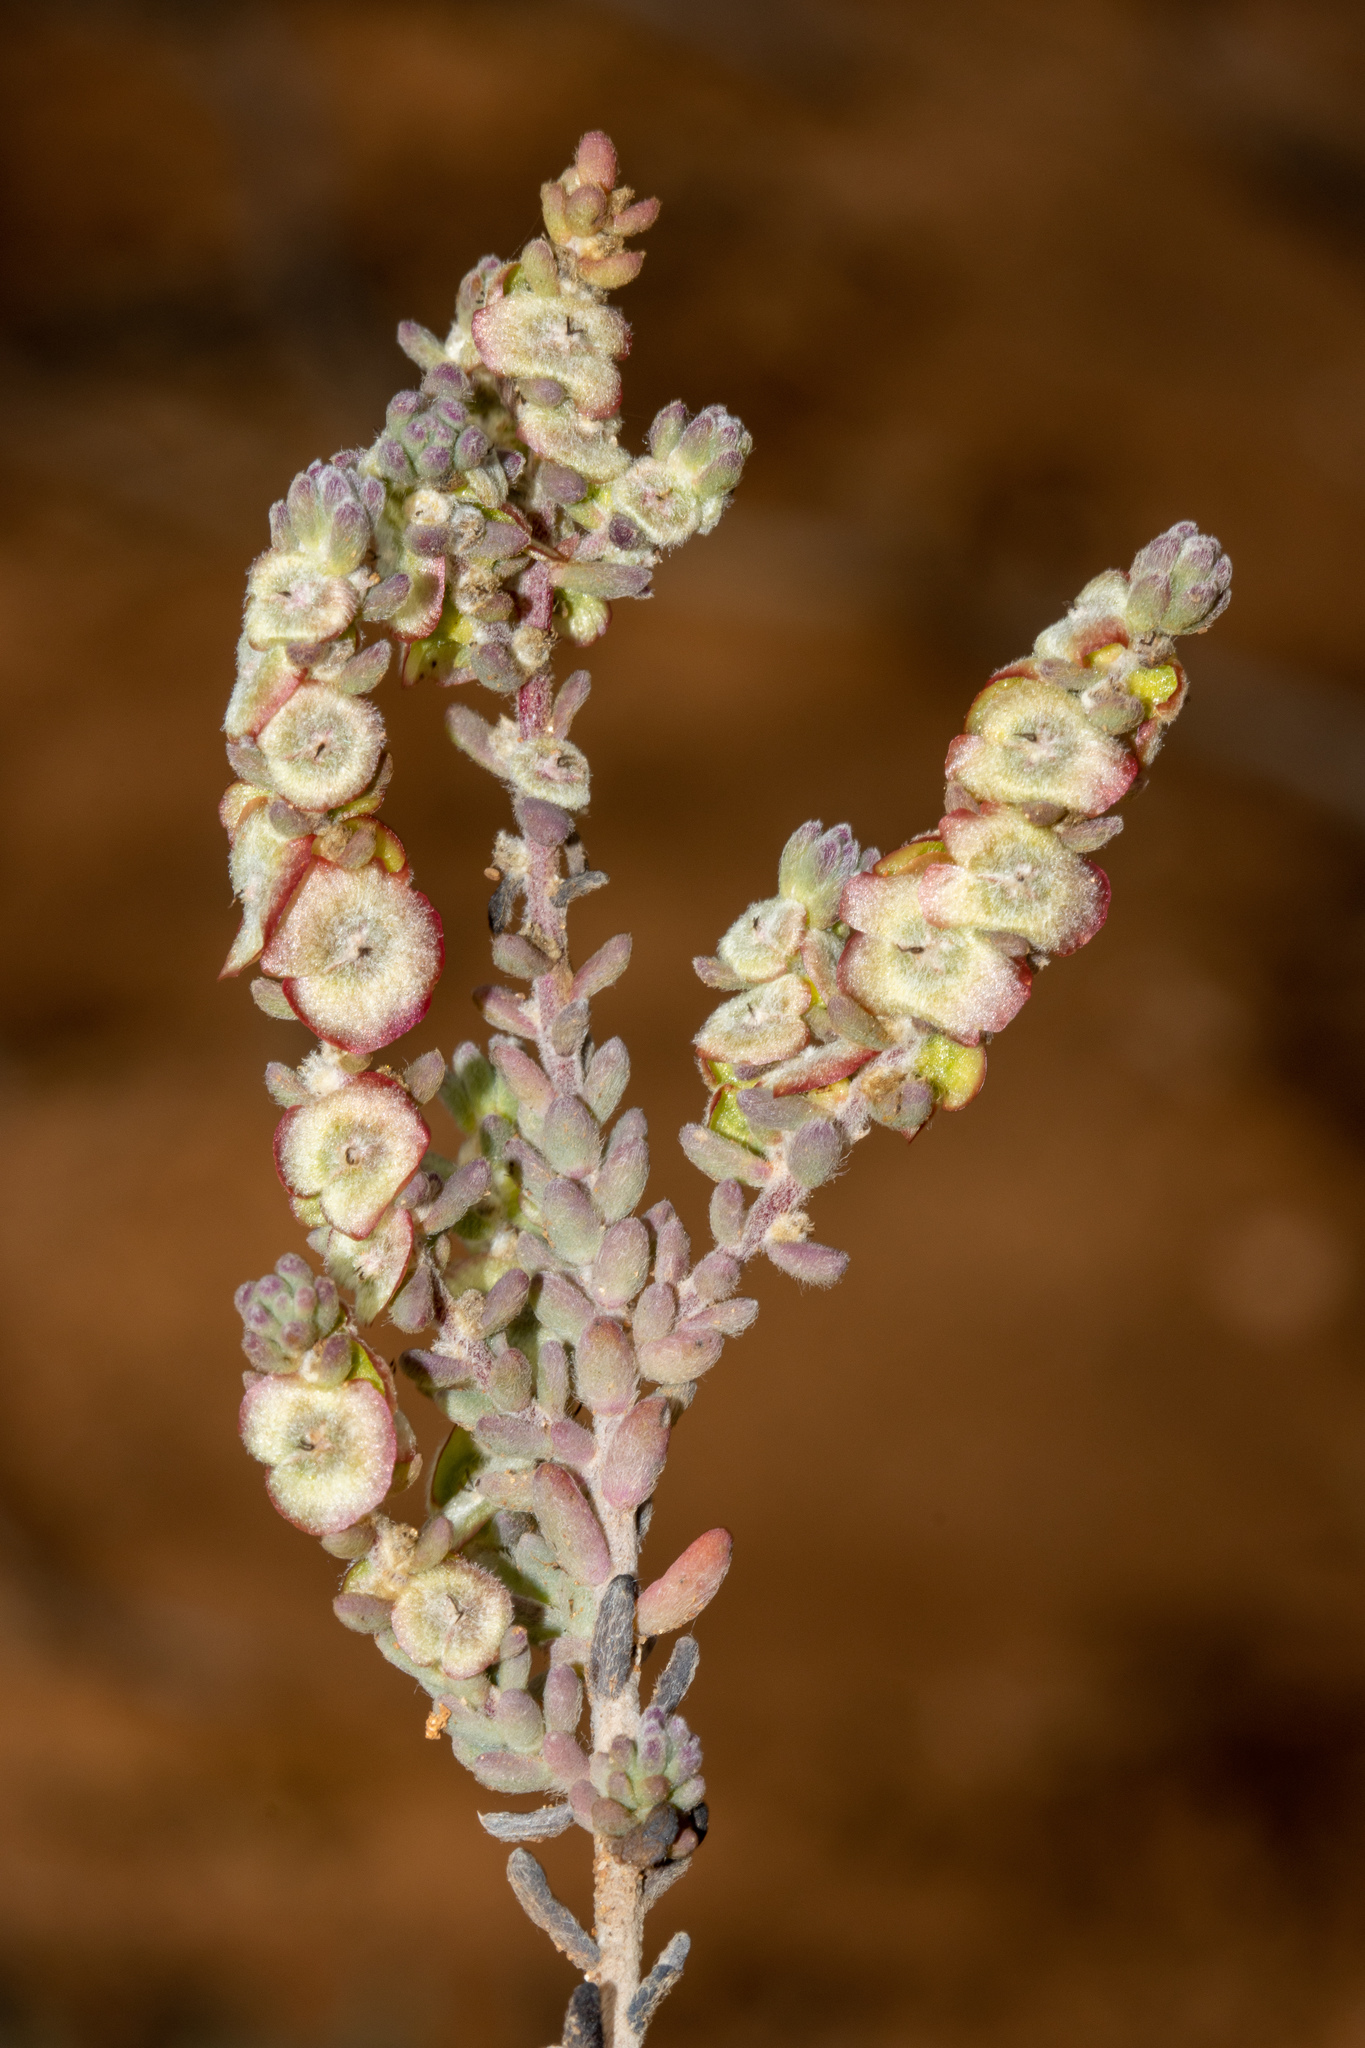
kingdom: Plantae
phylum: Tracheophyta
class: Magnoliopsida
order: Caryophyllales
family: Amaranthaceae
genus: Maireana
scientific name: Maireana trichoptera
